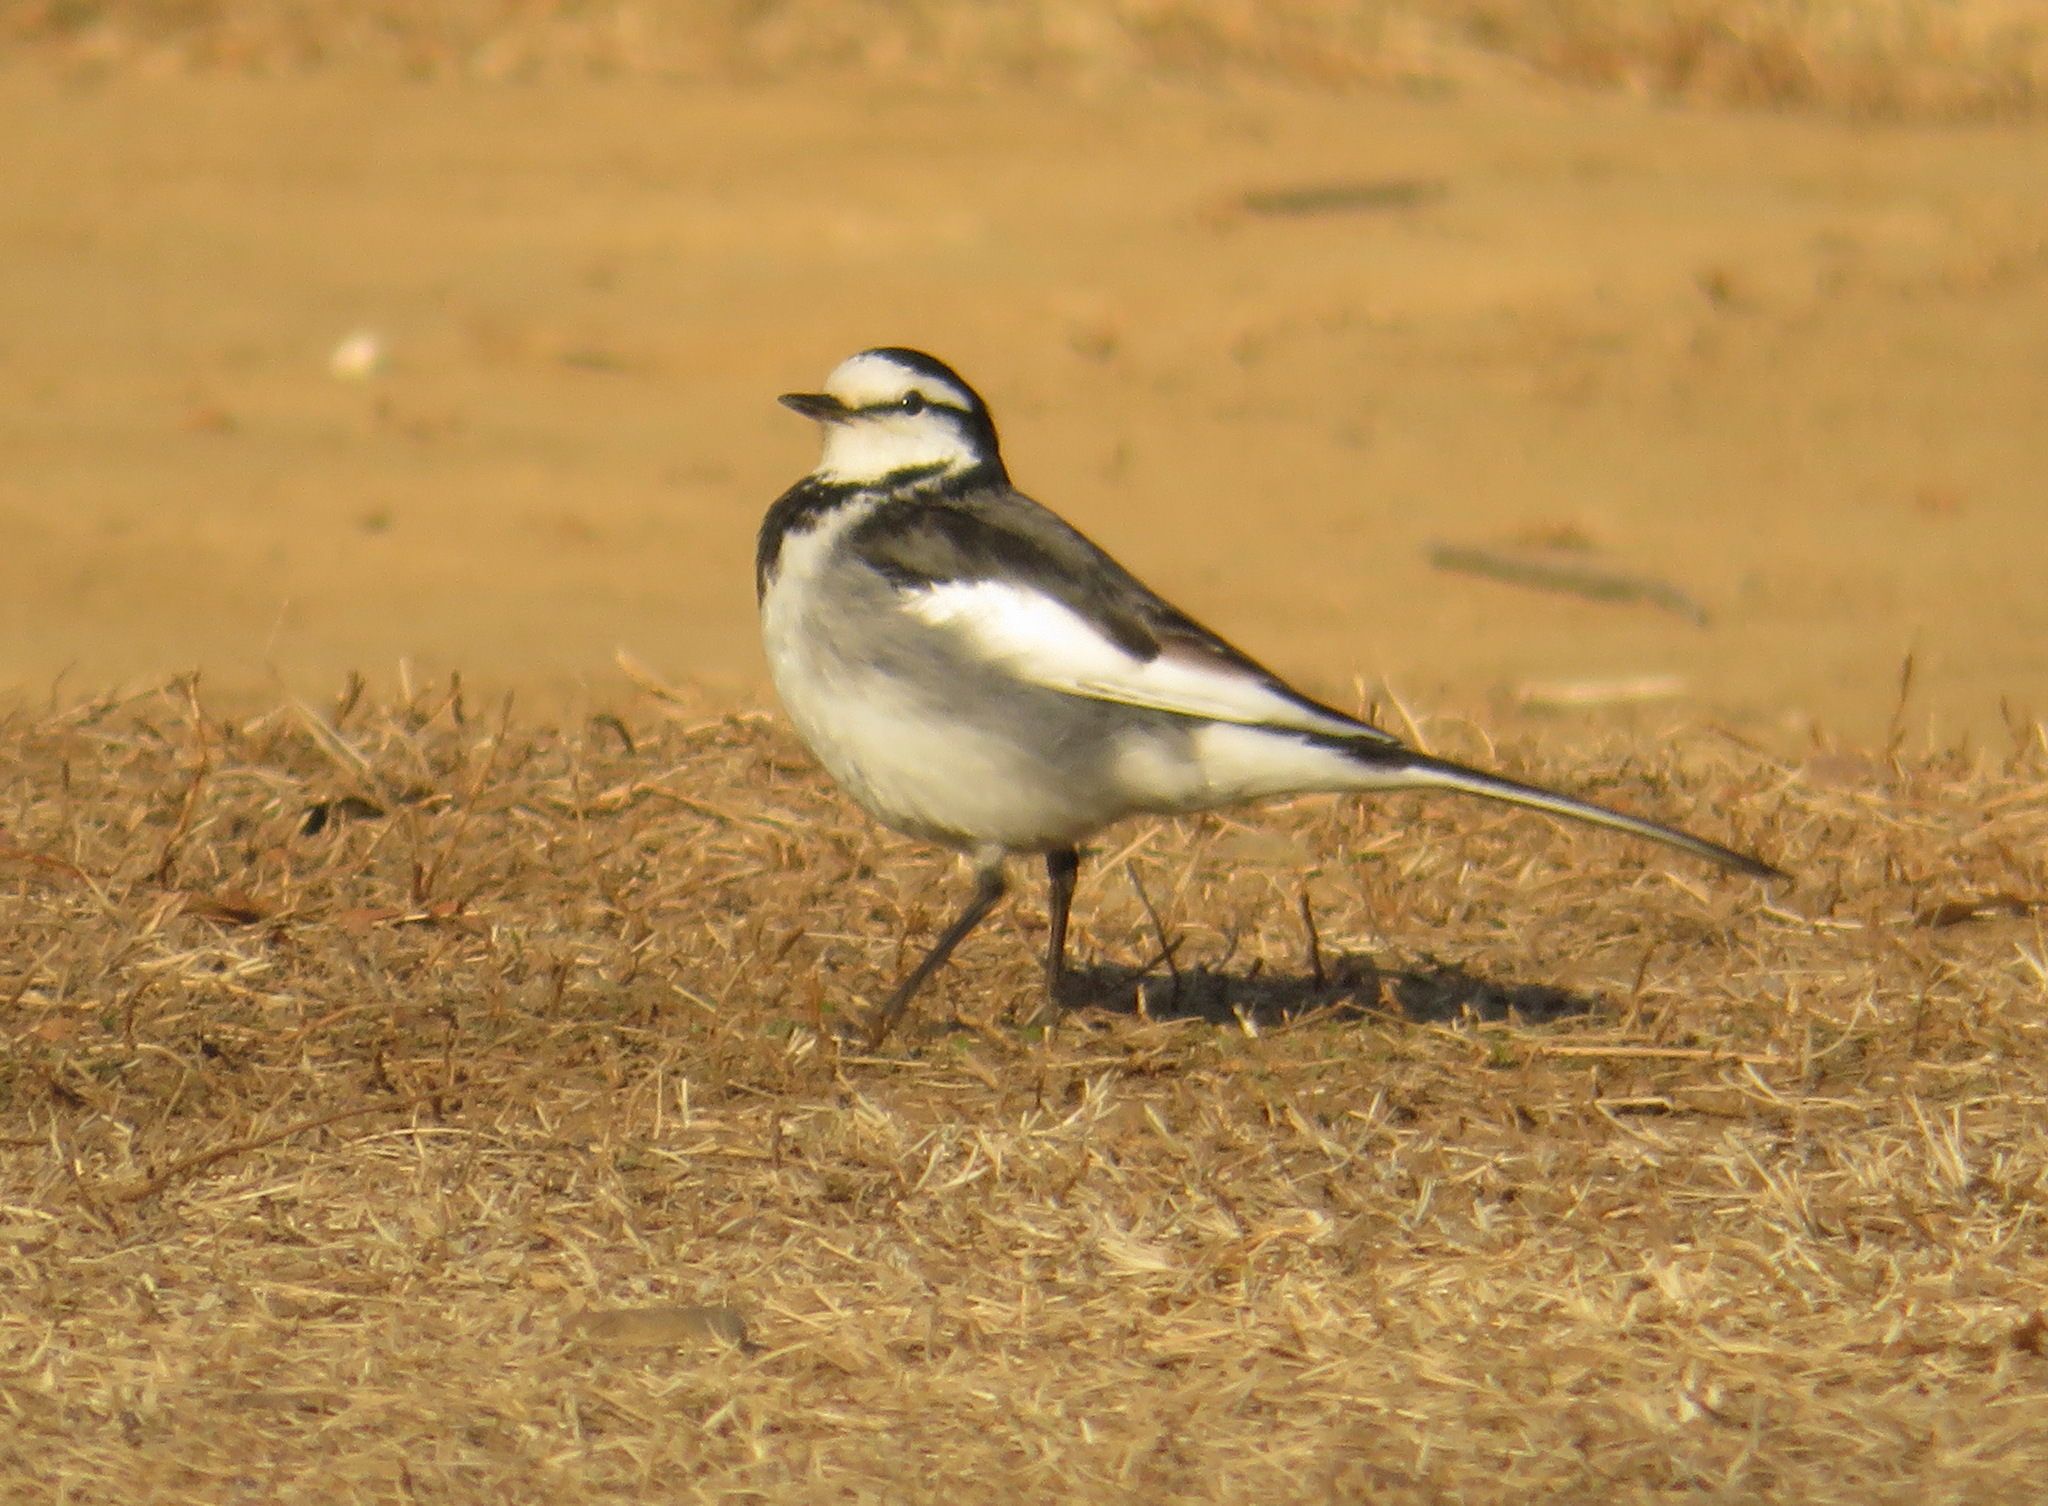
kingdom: Animalia
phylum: Chordata
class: Aves
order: Passeriformes
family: Motacillidae
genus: Motacilla
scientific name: Motacilla alba
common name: White wagtail
